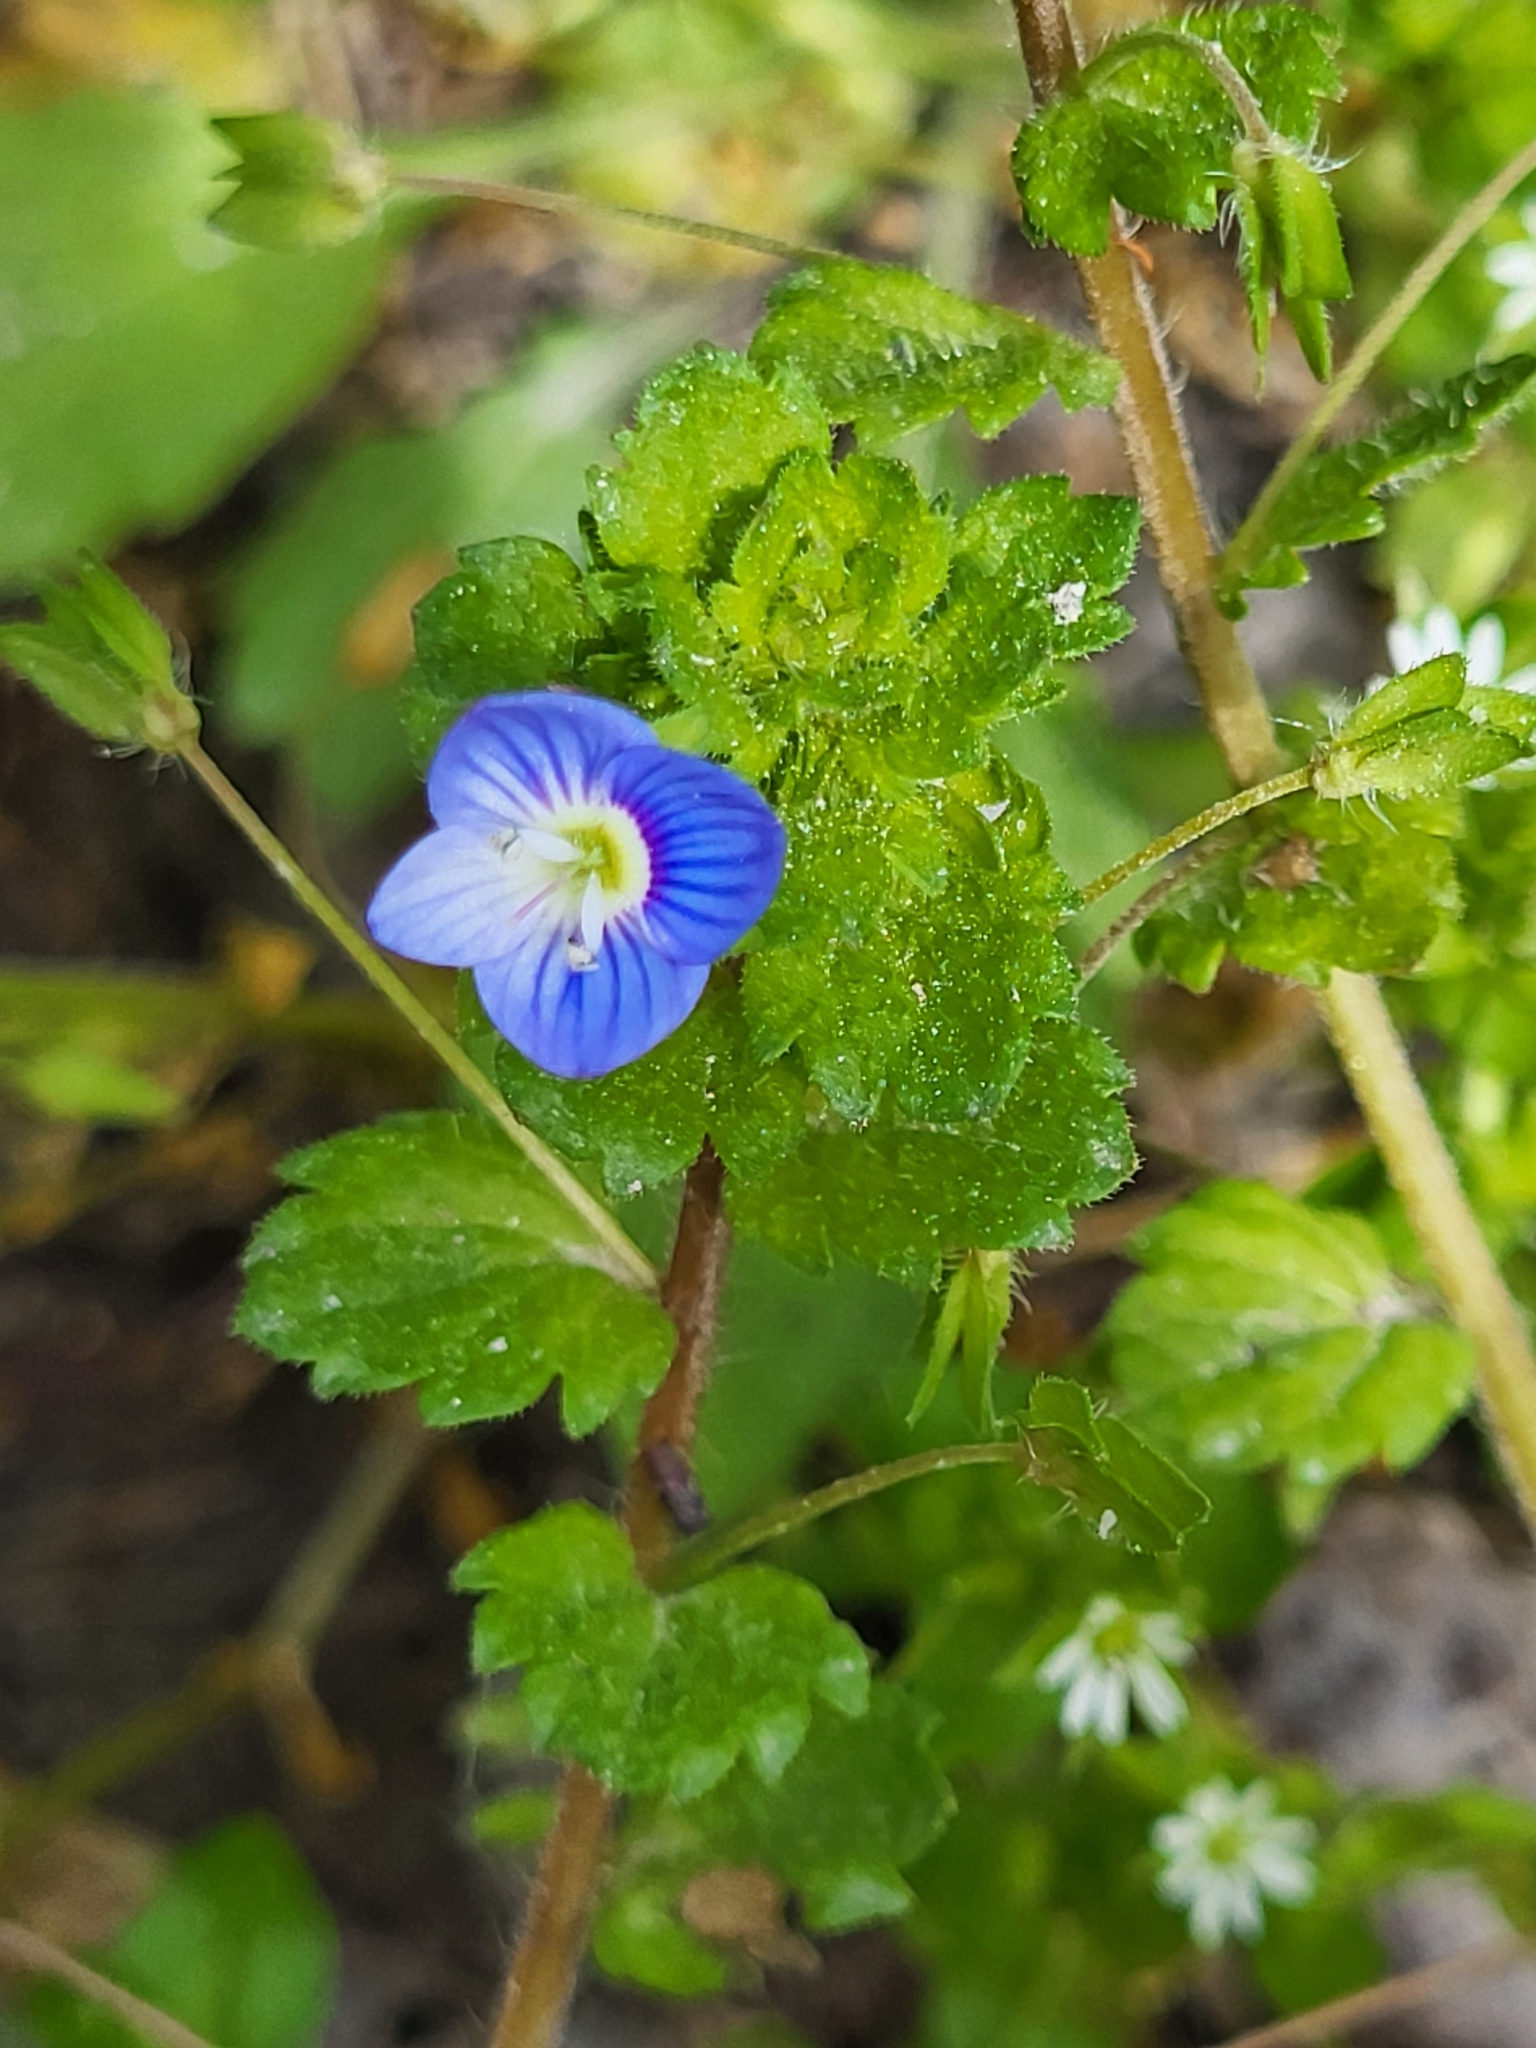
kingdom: Plantae
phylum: Tracheophyta
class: Magnoliopsida
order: Lamiales
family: Plantaginaceae
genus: Veronica
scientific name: Veronica persica
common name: Common field-speedwell
